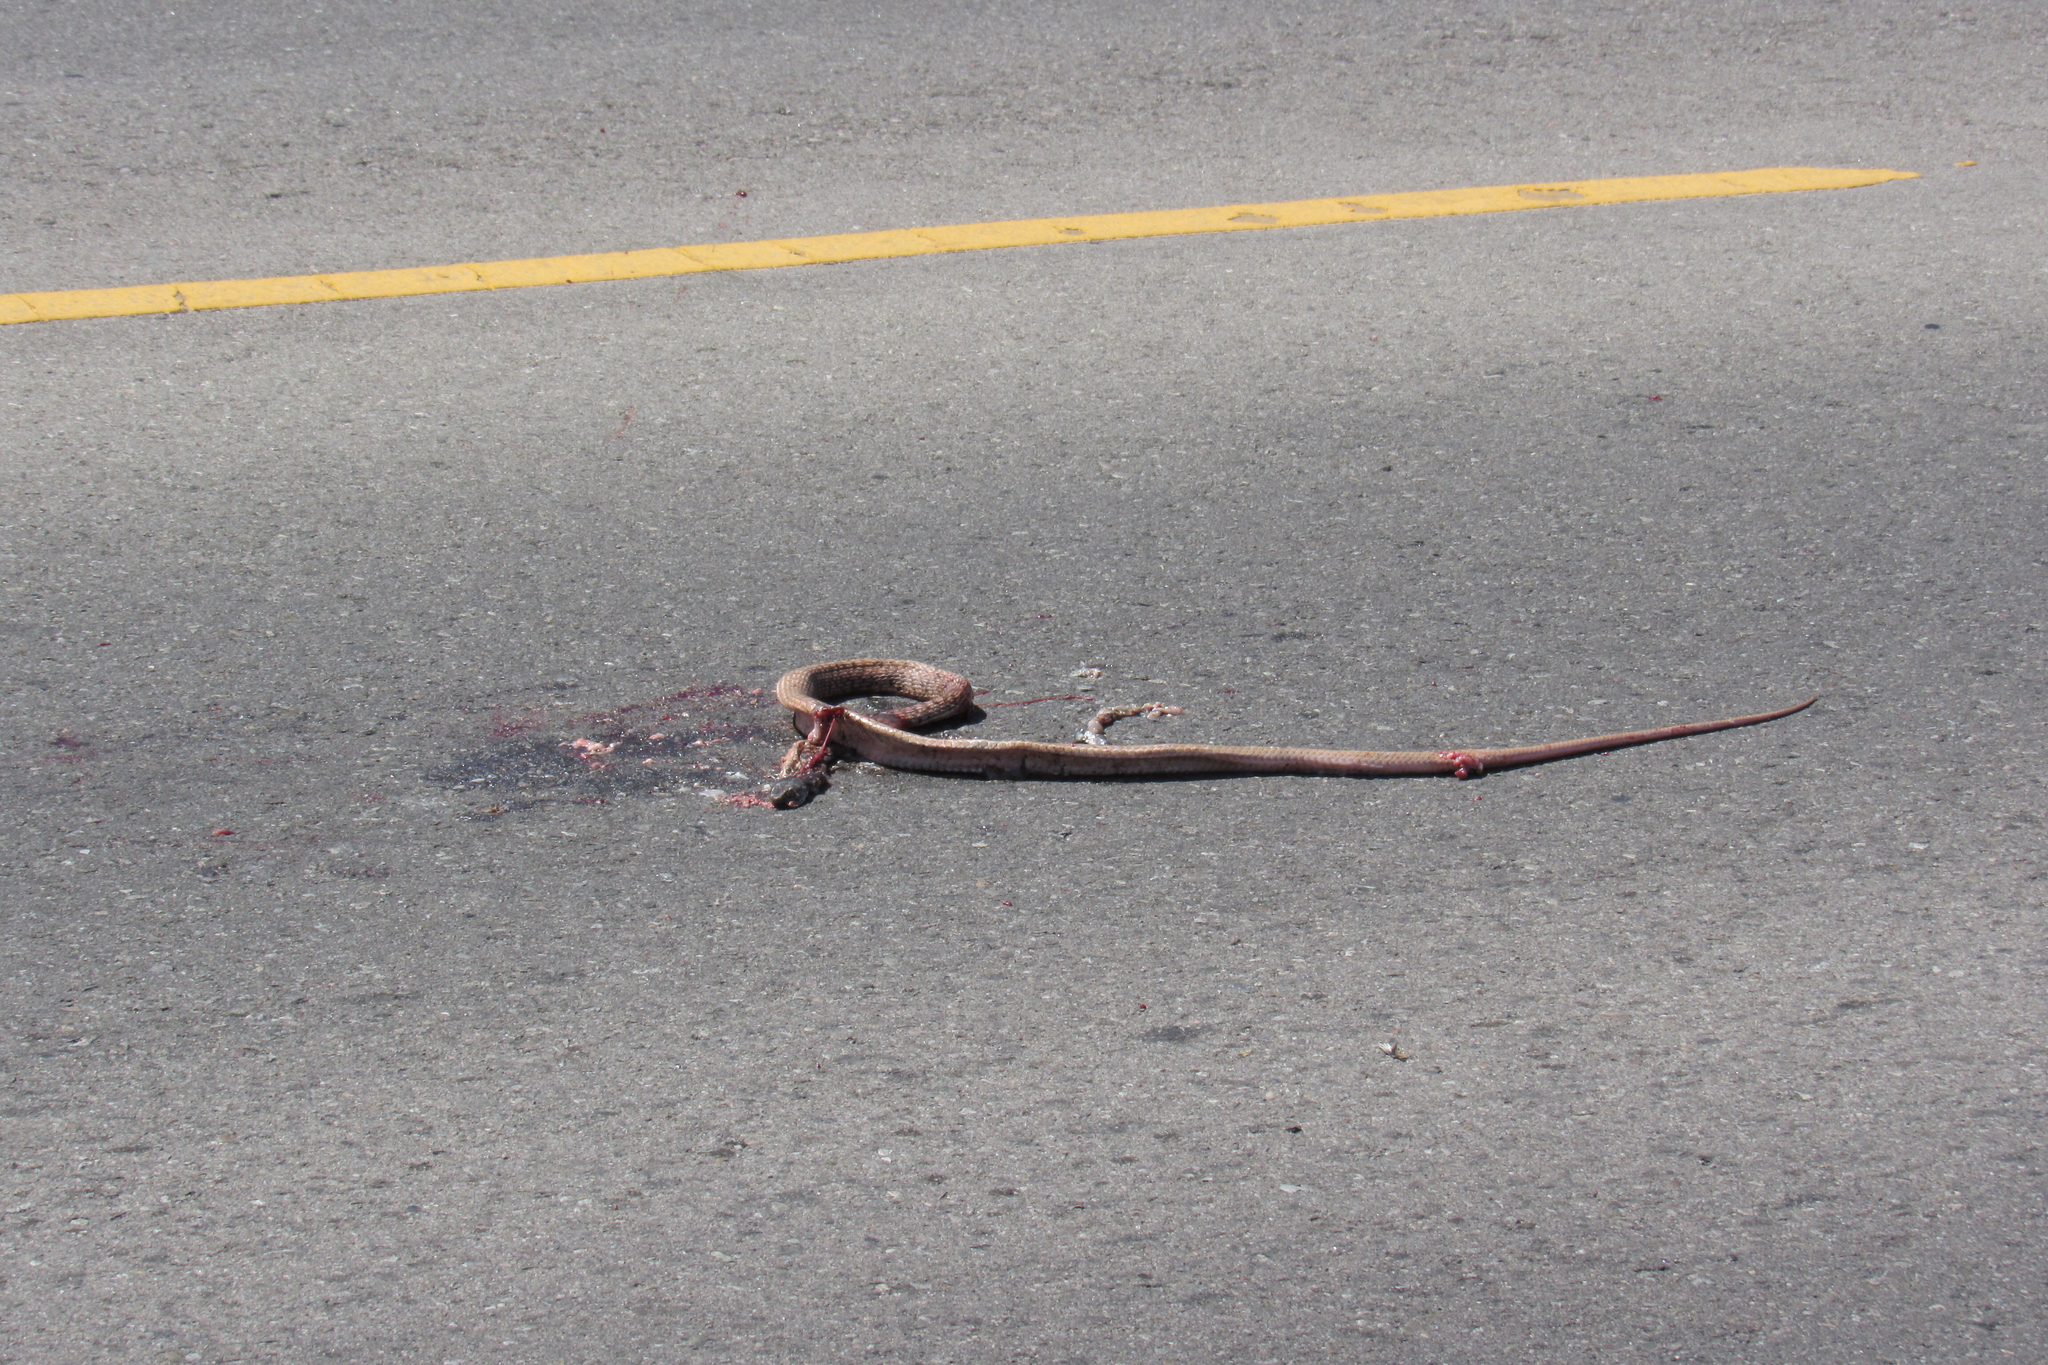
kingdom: Animalia
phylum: Chordata
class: Squamata
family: Colubridae
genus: Masticophis
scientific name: Masticophis flagellum
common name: Coachwhip
